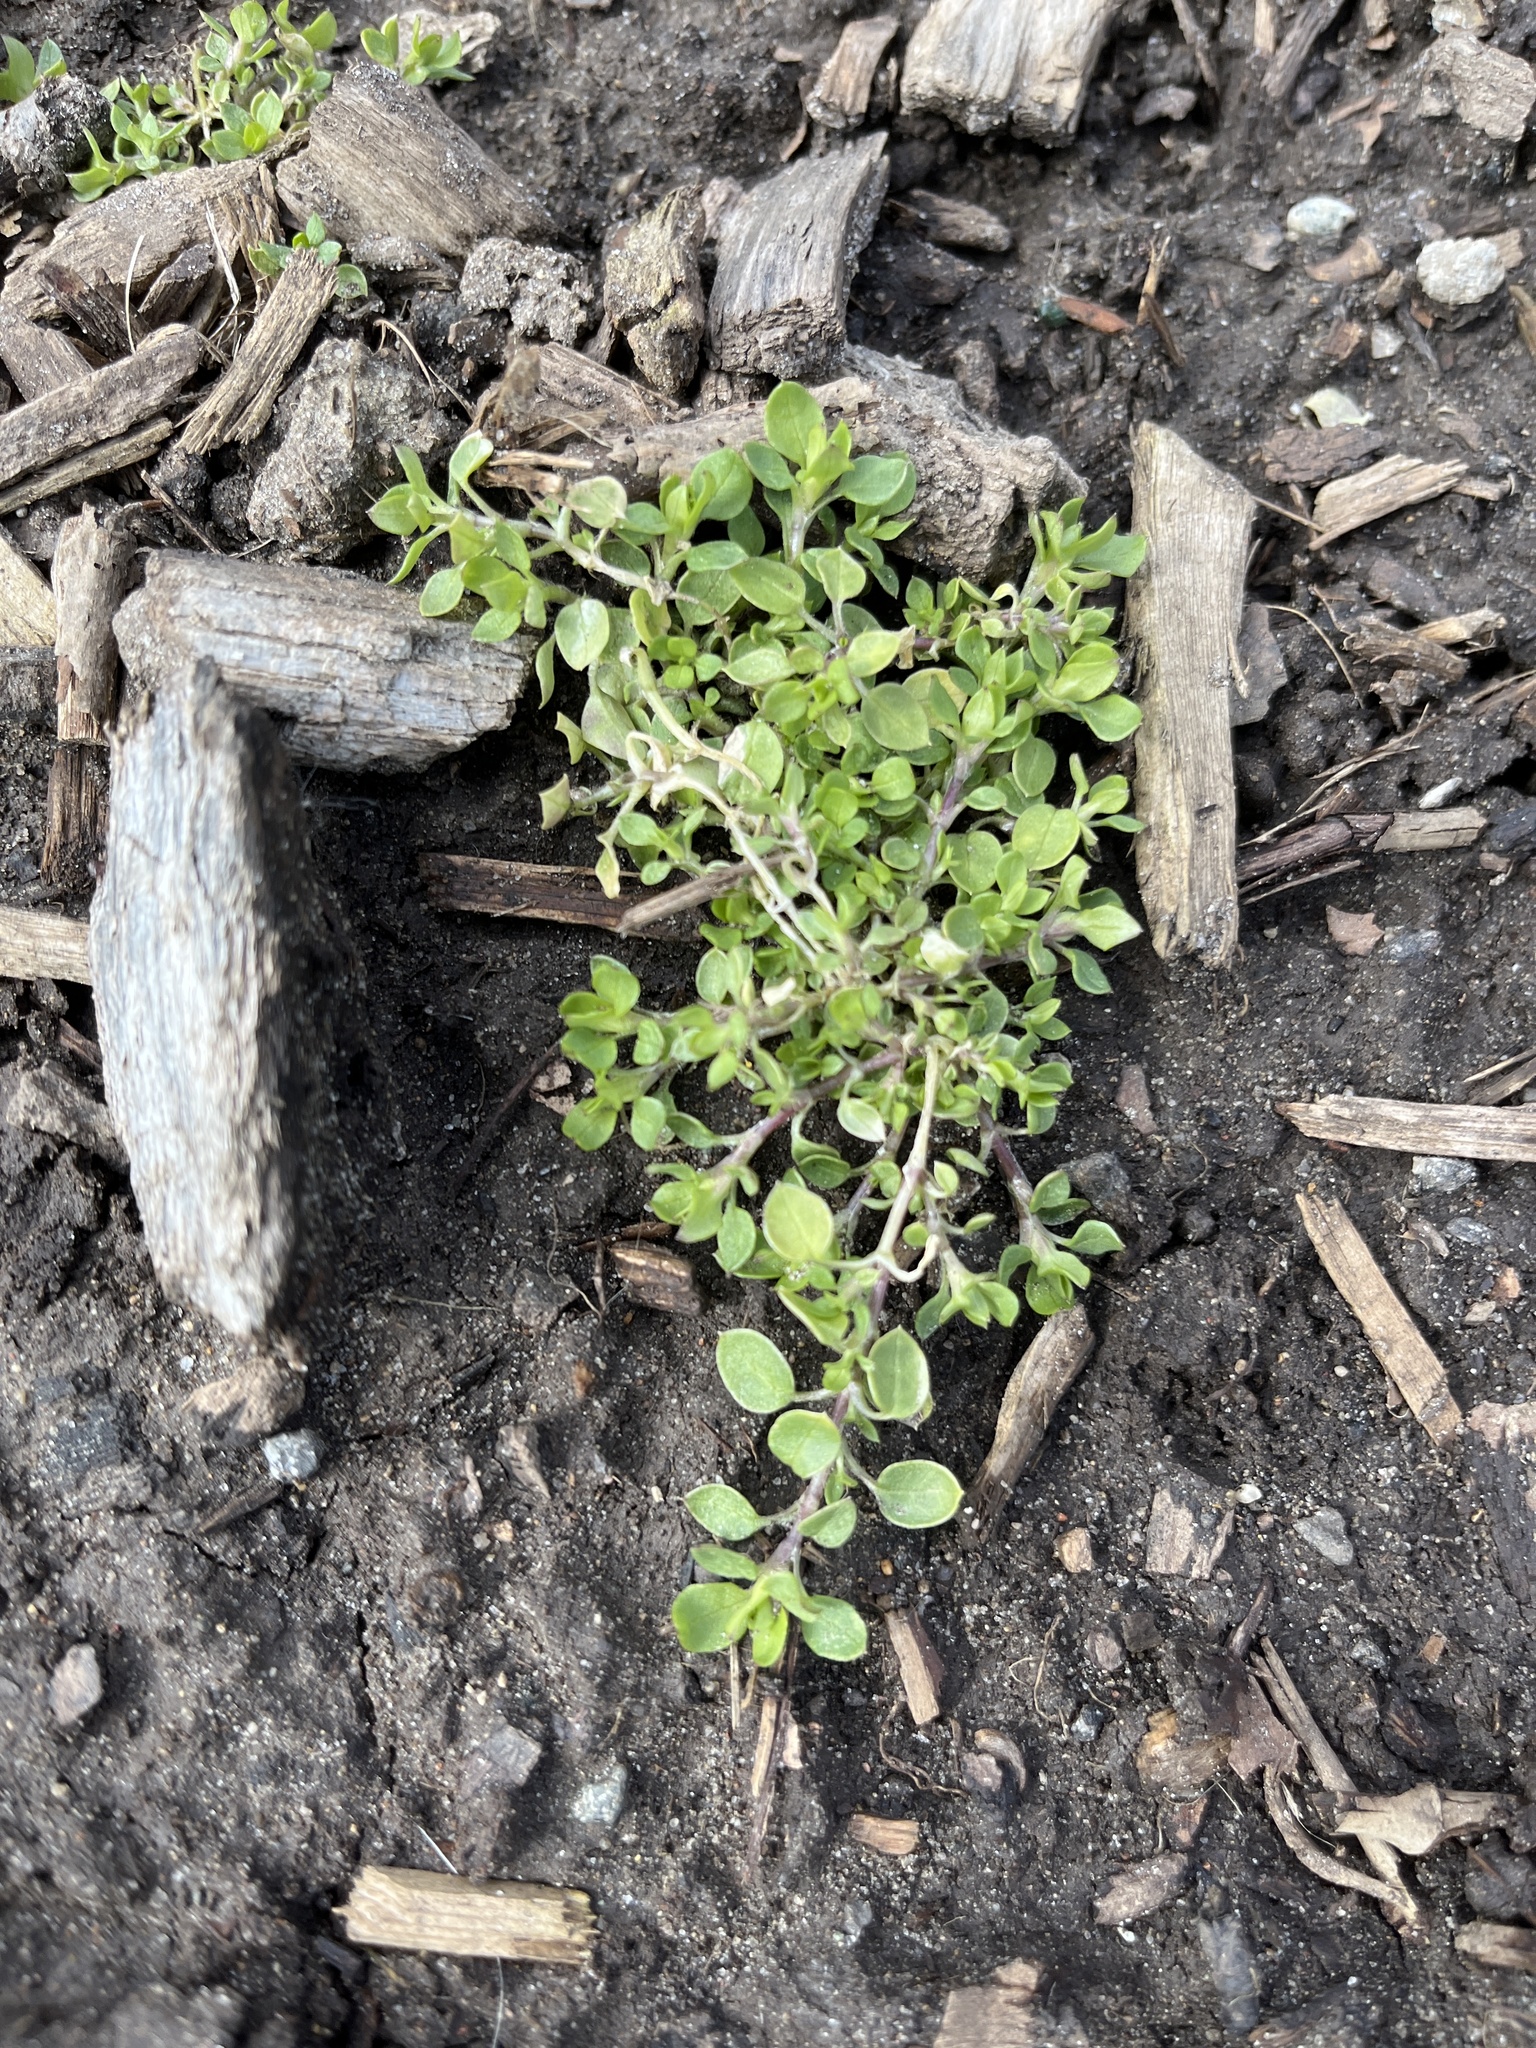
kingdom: Plantae
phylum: Tracheophyta
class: Magnoliopsida
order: Caryophyllales
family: Caryophyllaceae
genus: Stellaria
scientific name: Stellaria media
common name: Common chickweed
